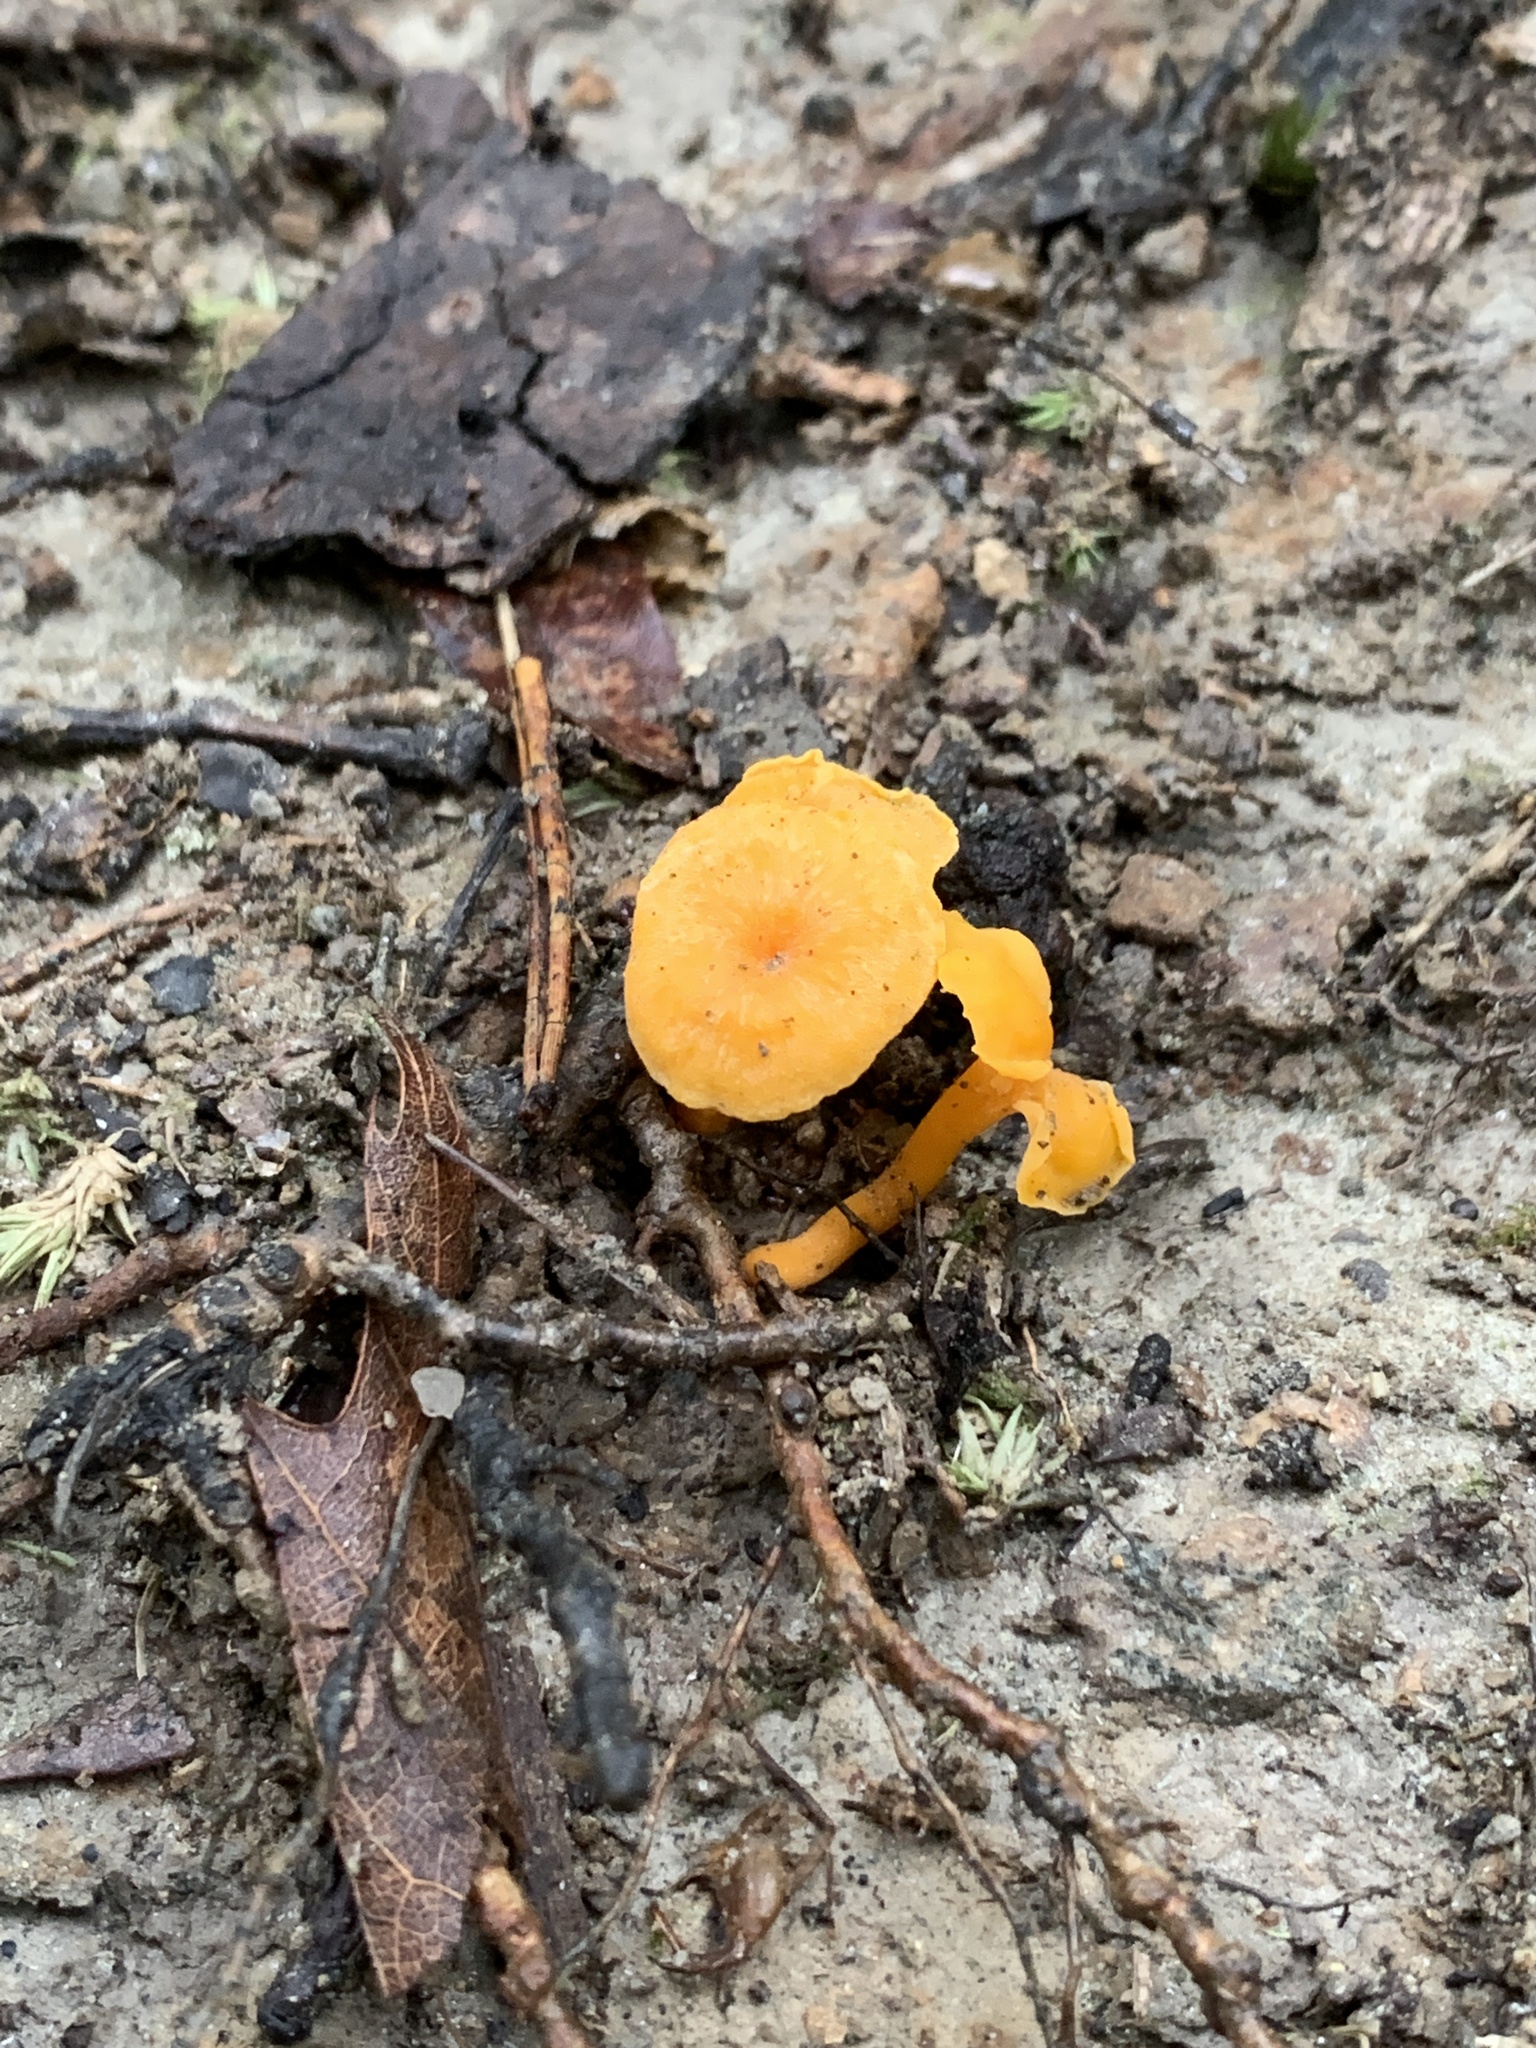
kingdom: Fungi
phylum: Basidiomycota
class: Agaricomycetes
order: Cantharellales
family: Hydnaceae
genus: Cantharellus
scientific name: Cantharellus minor
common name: Small chanterelle
